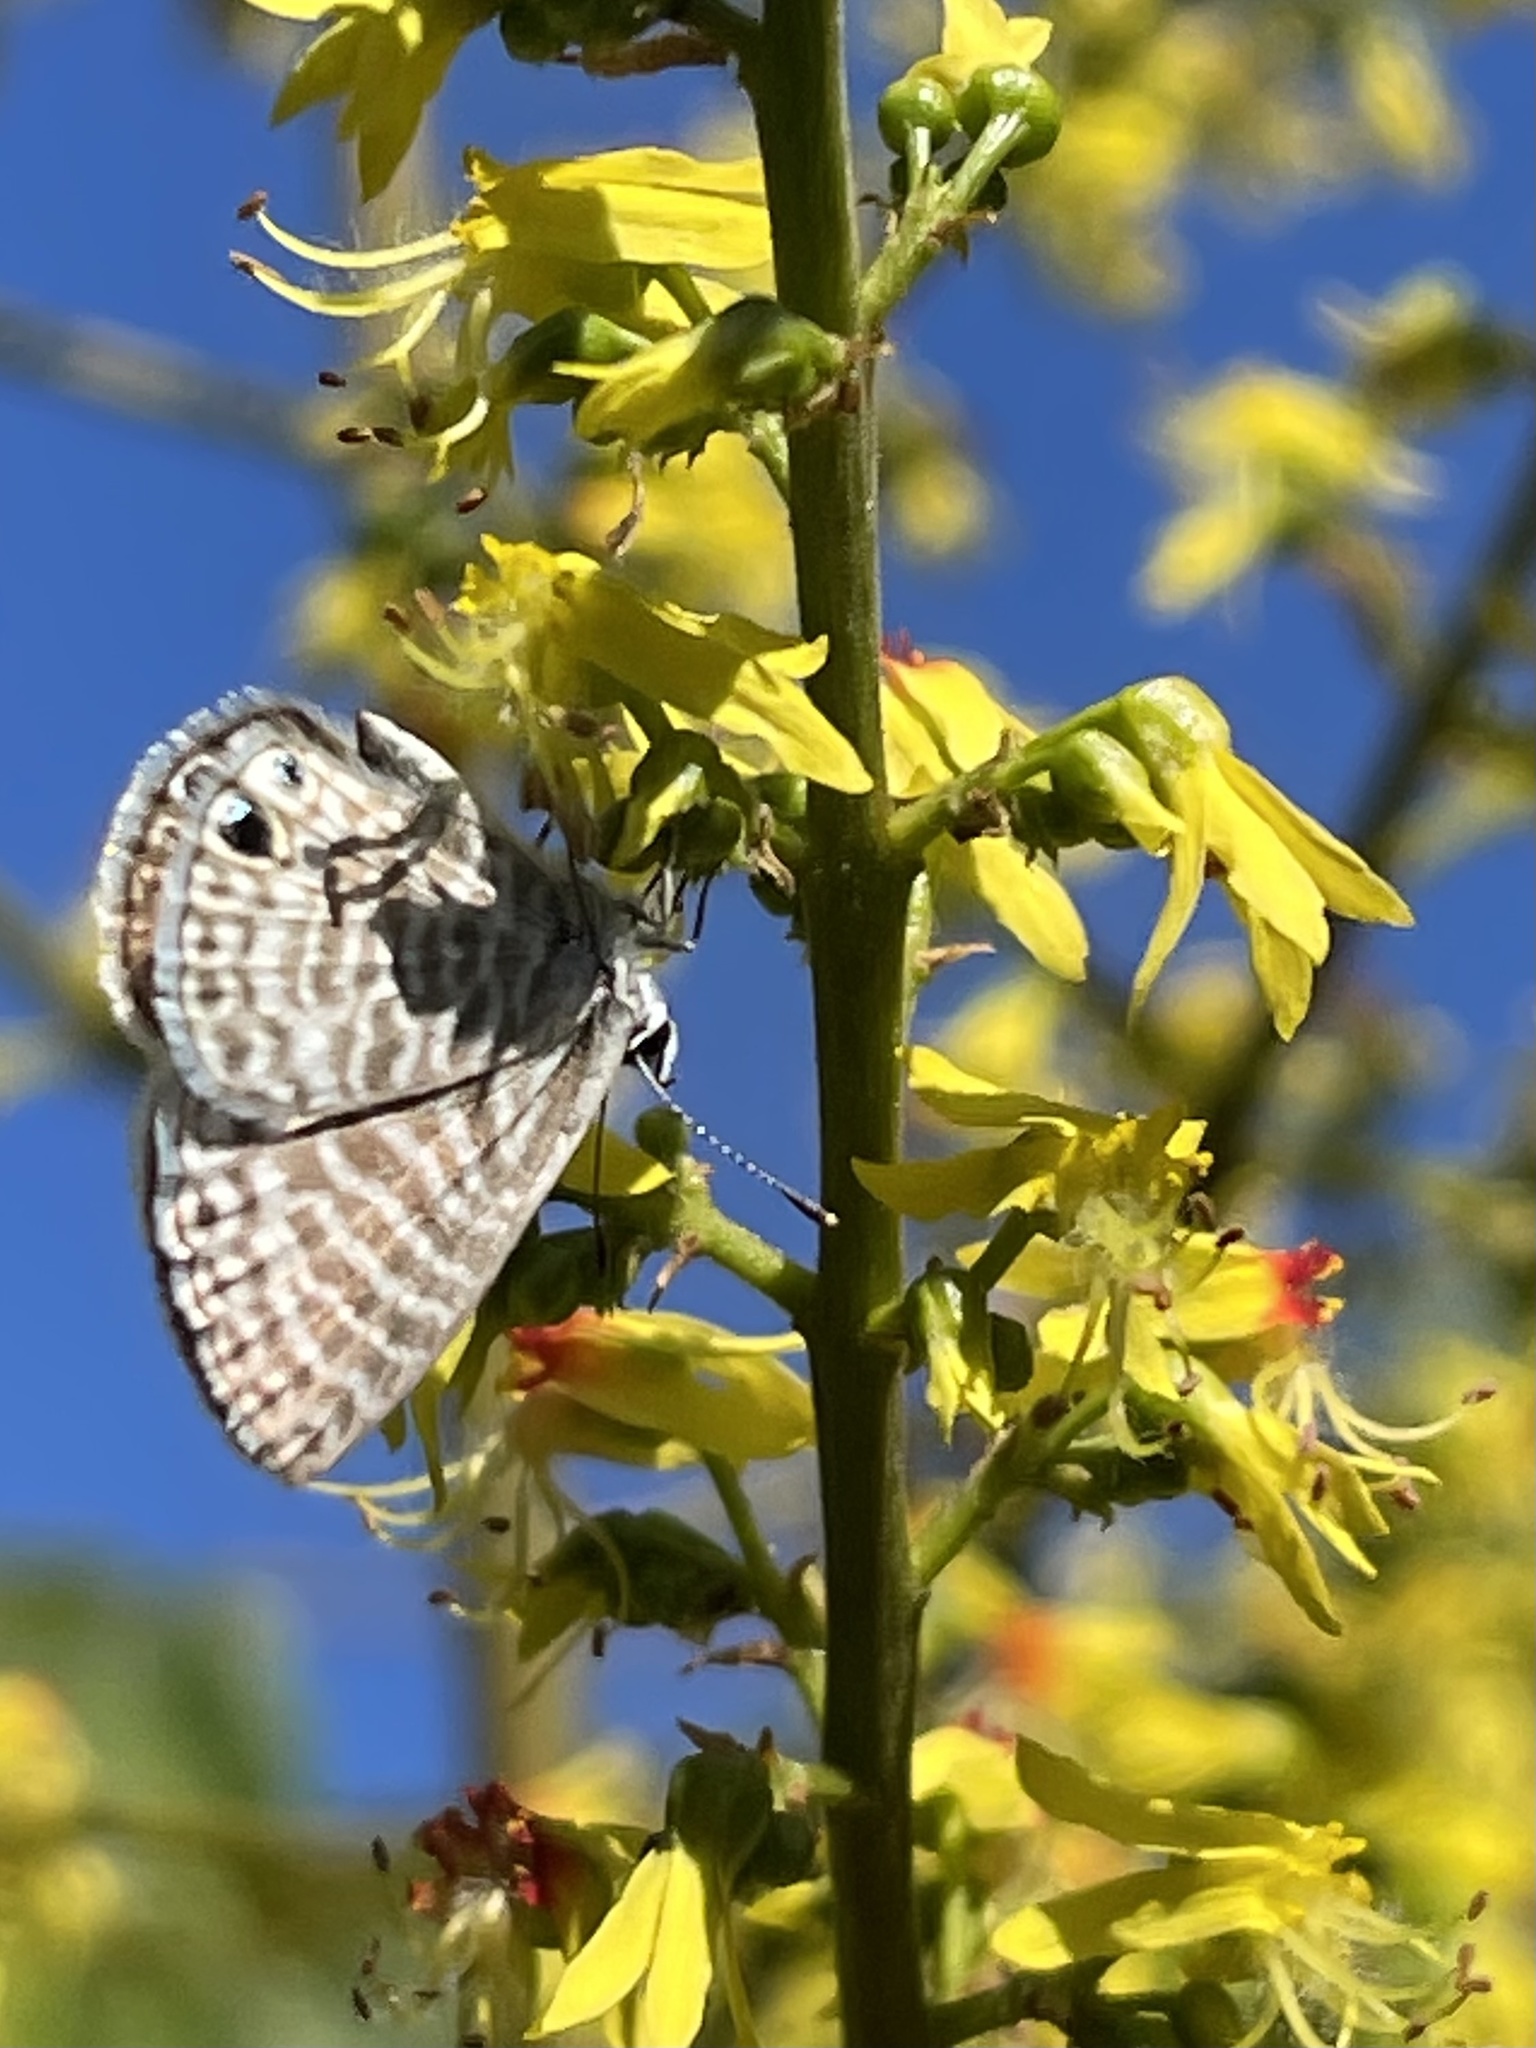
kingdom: Animalia
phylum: Arthropoda
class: Insecta
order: Lepidoptera
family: Lycaenidae
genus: Leptotes
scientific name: Leptotes marina
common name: Marine blue
